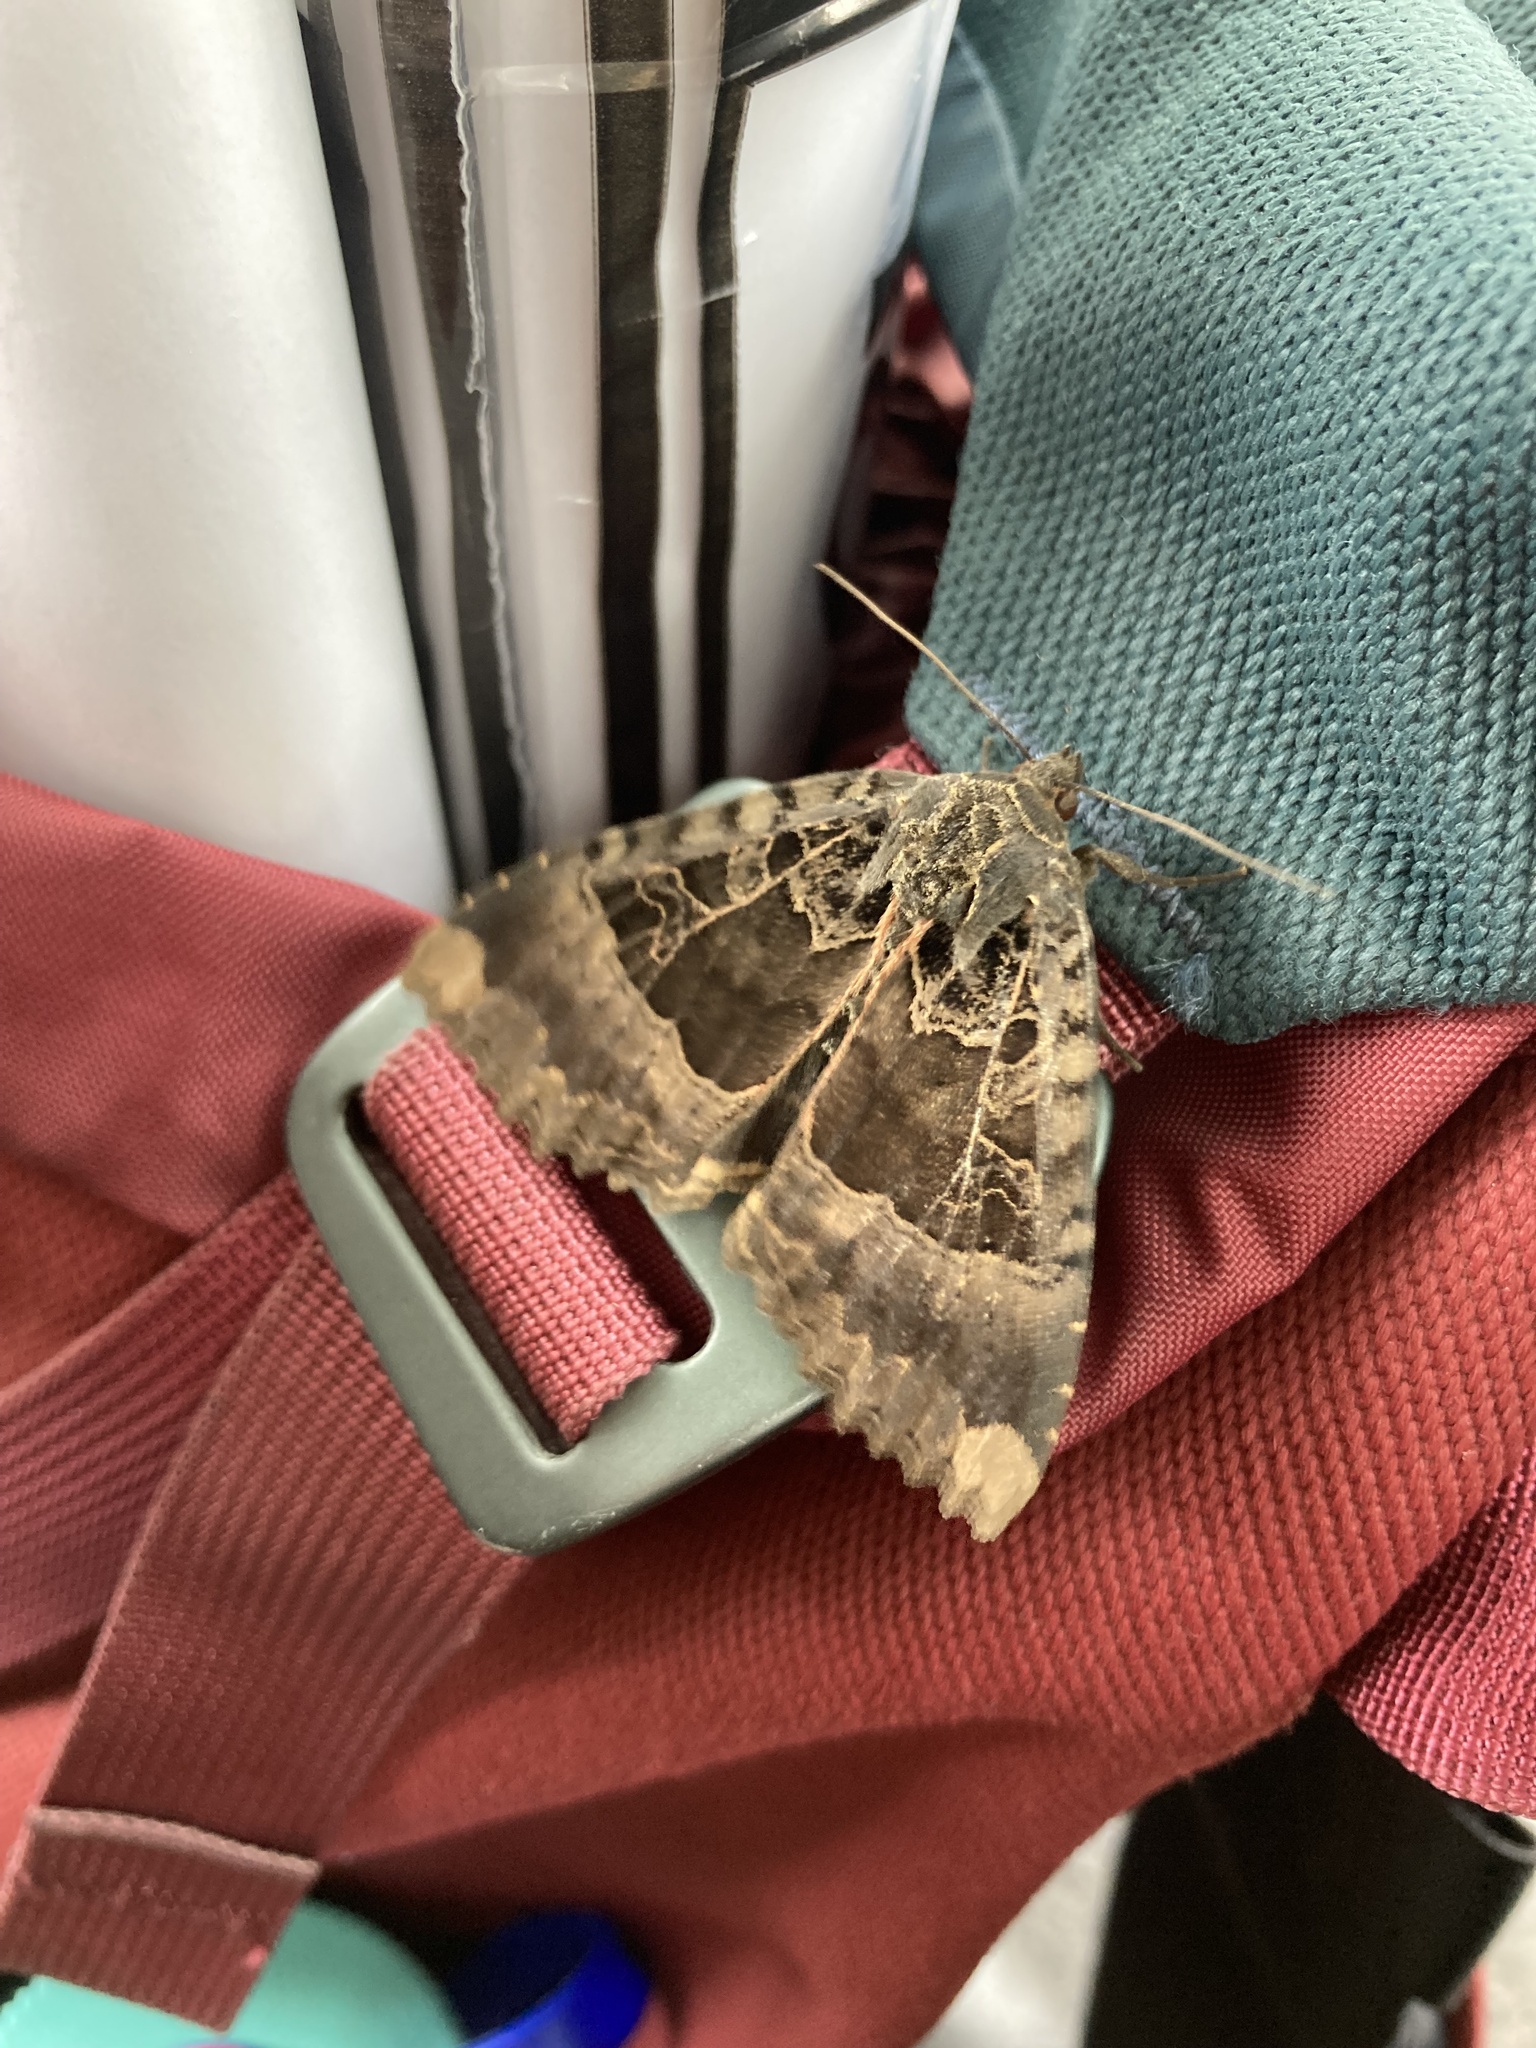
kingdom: Animalia
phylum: Arthropoda
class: Insecta
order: Lepidoptera
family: Noctuidae
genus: Mormo
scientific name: Mormo maura
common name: Old lady
